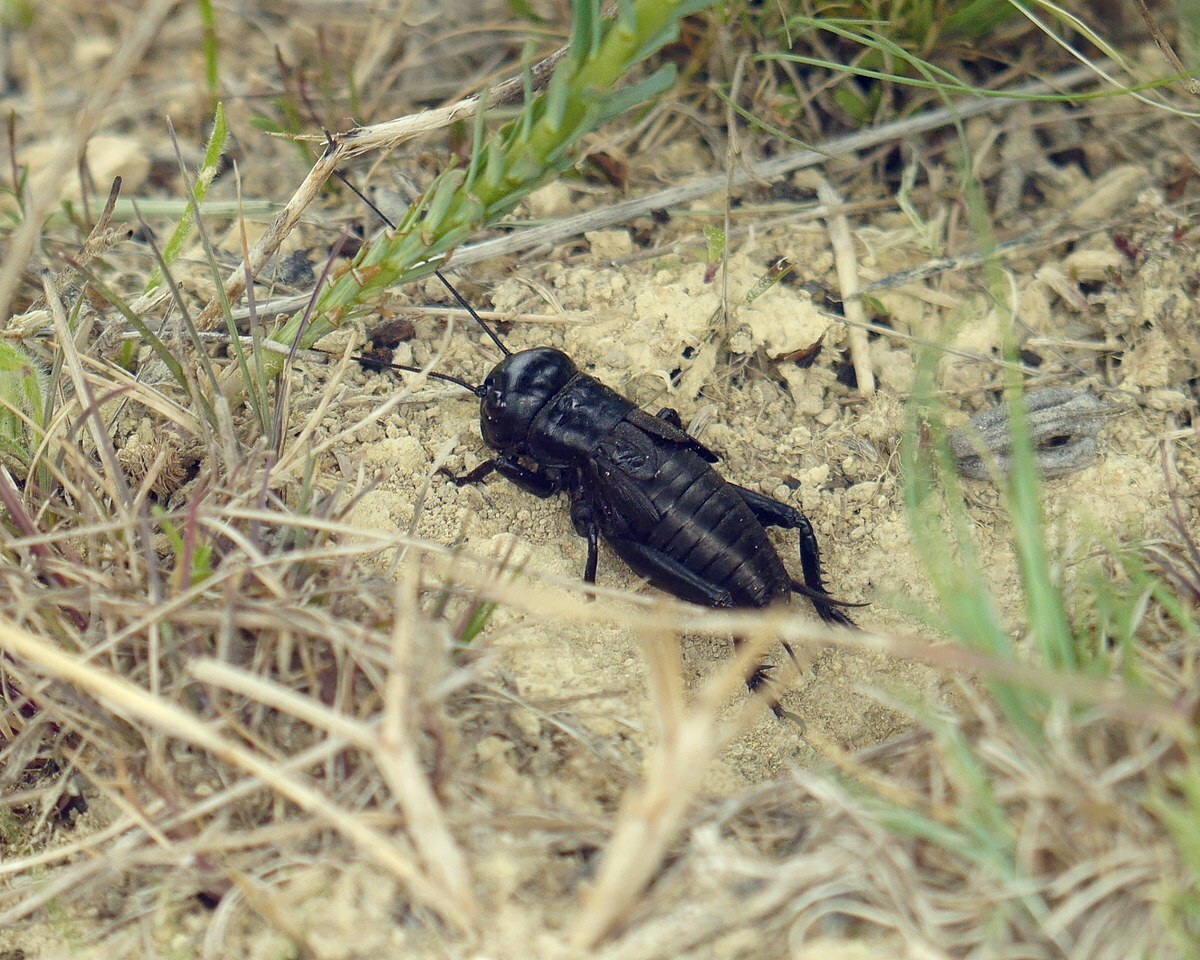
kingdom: Animalia
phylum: Arthropoda
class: Insecta
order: Orthoptera
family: Gryllidae
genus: Gryllus
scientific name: Gryllus campestris
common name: Field cricket
